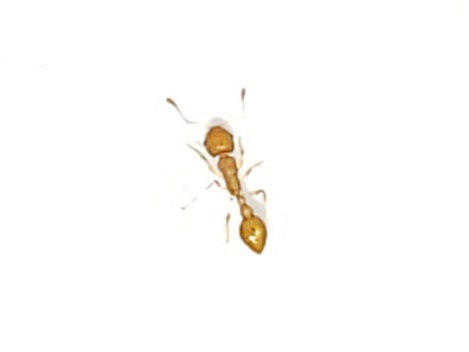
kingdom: Animalia
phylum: Arthropoda
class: Insecta
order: Hymenoptera
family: Formicidae
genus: Cardiocondyla
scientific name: Cardiocondyla wroughtonii
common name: Yellow sneaking ant
